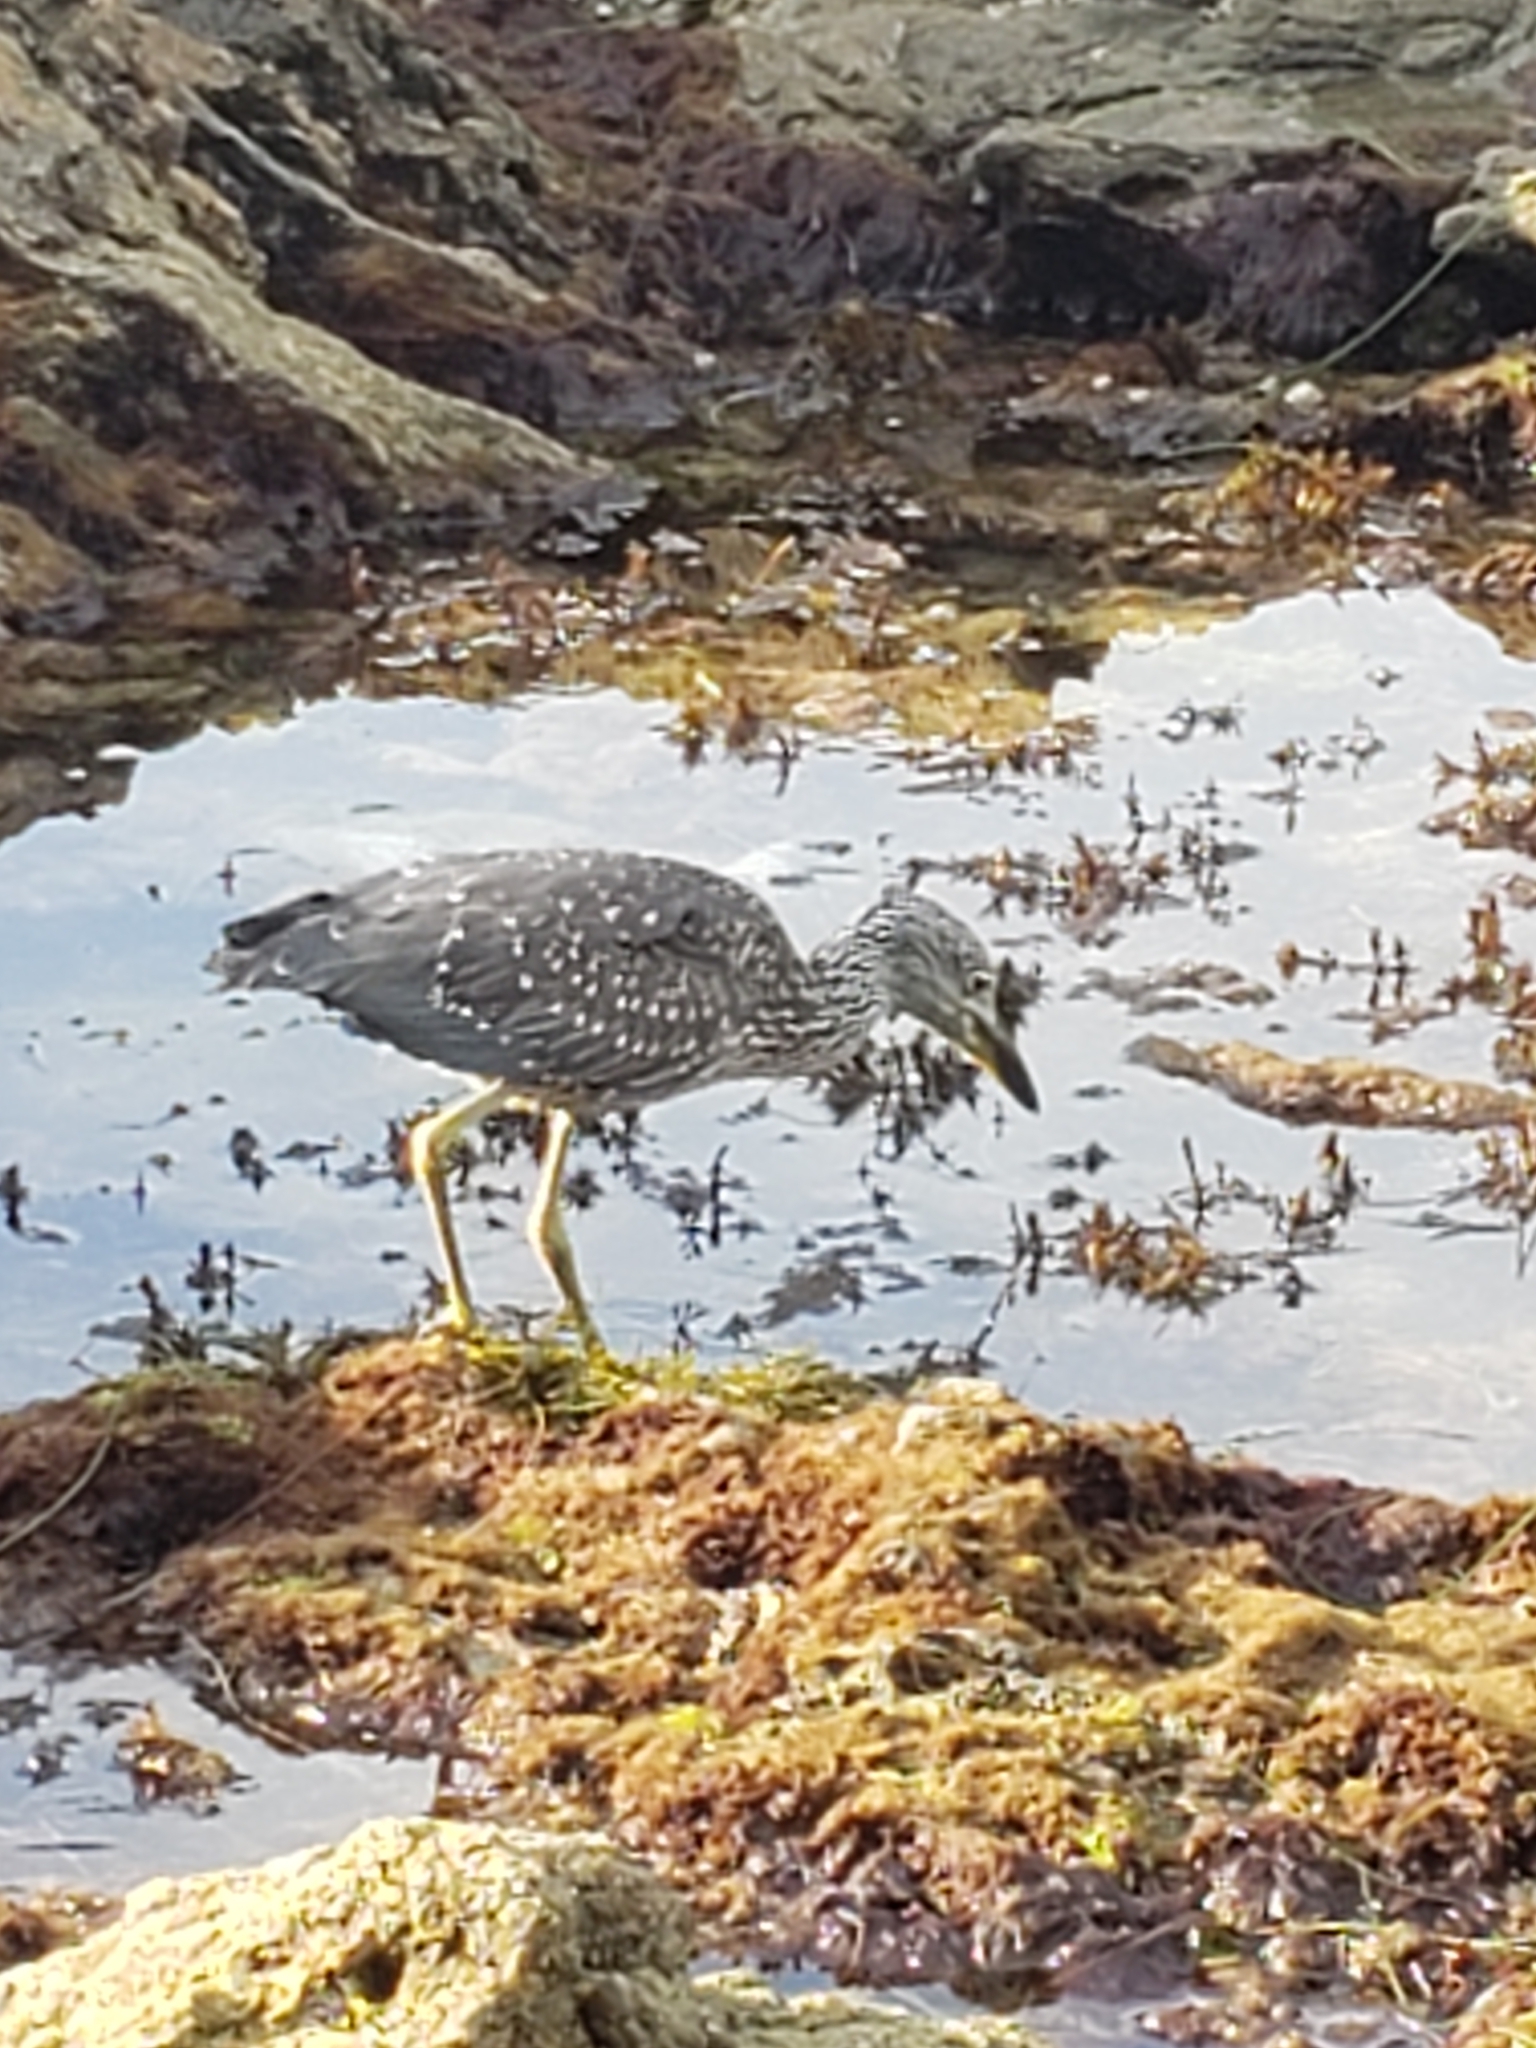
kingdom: Animalia
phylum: Chordata
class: Aves
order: Pelecaniformes
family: Ardeidae
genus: Nyctanassa
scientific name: Nyctanassa violacea
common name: Yellow-crowned night heron
